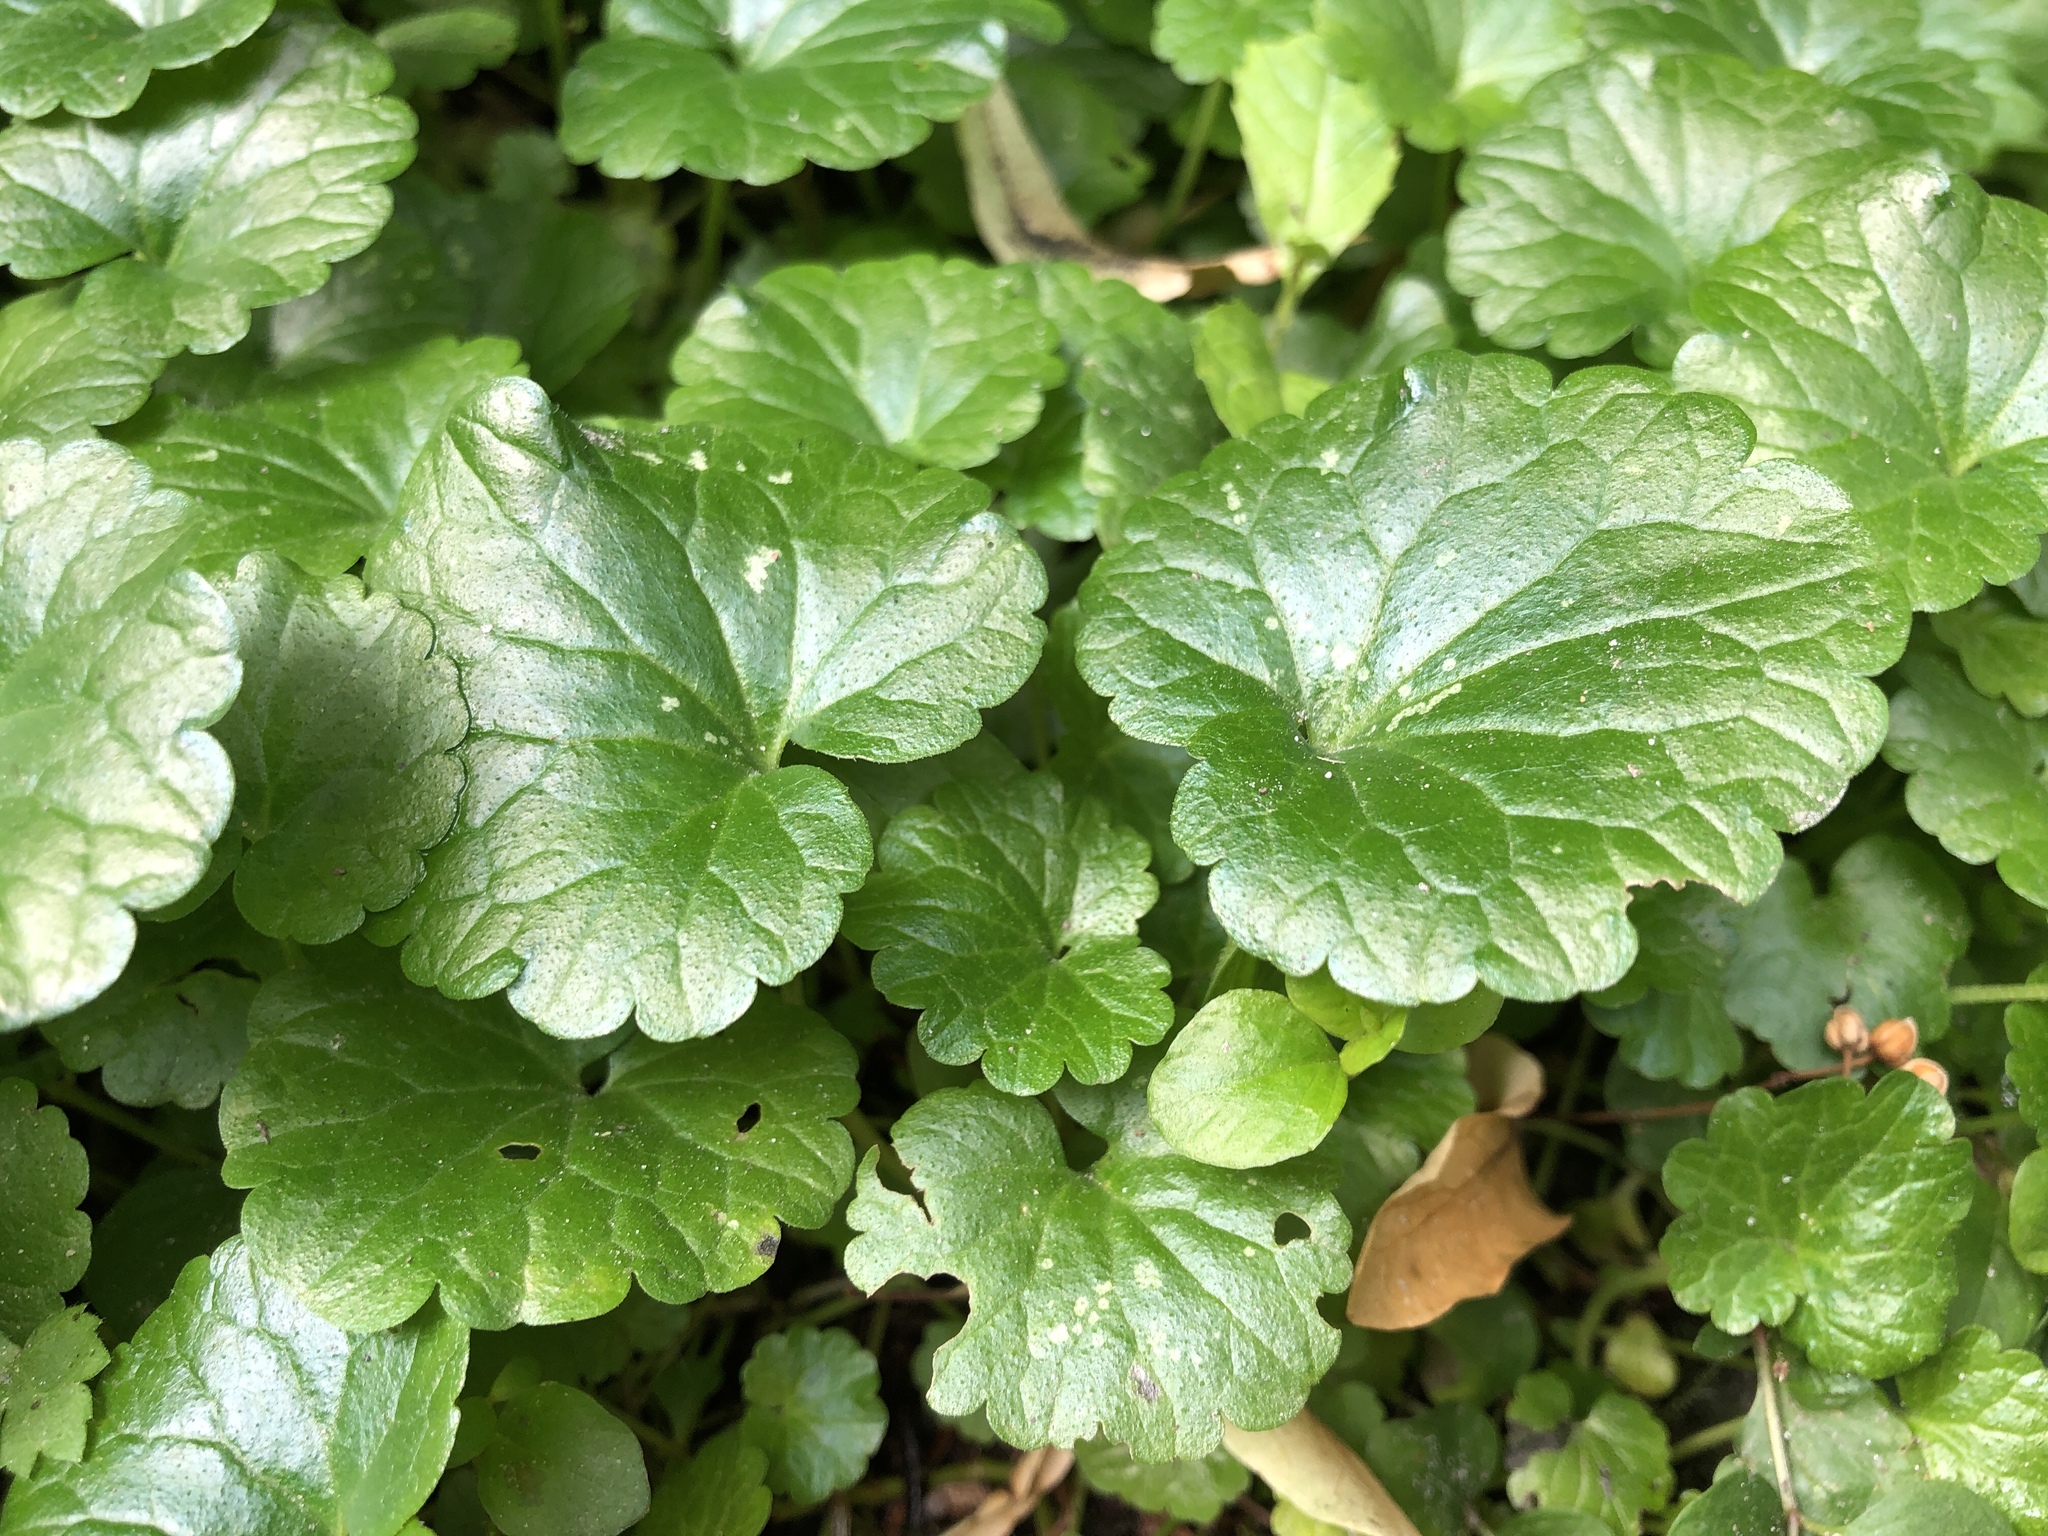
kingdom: Plantae
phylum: Tracheophyta
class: Magnoliopsida
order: Lamiales
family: Lamiaceae
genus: Glechoma
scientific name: Glechoma hederacea
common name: Ground ivy
